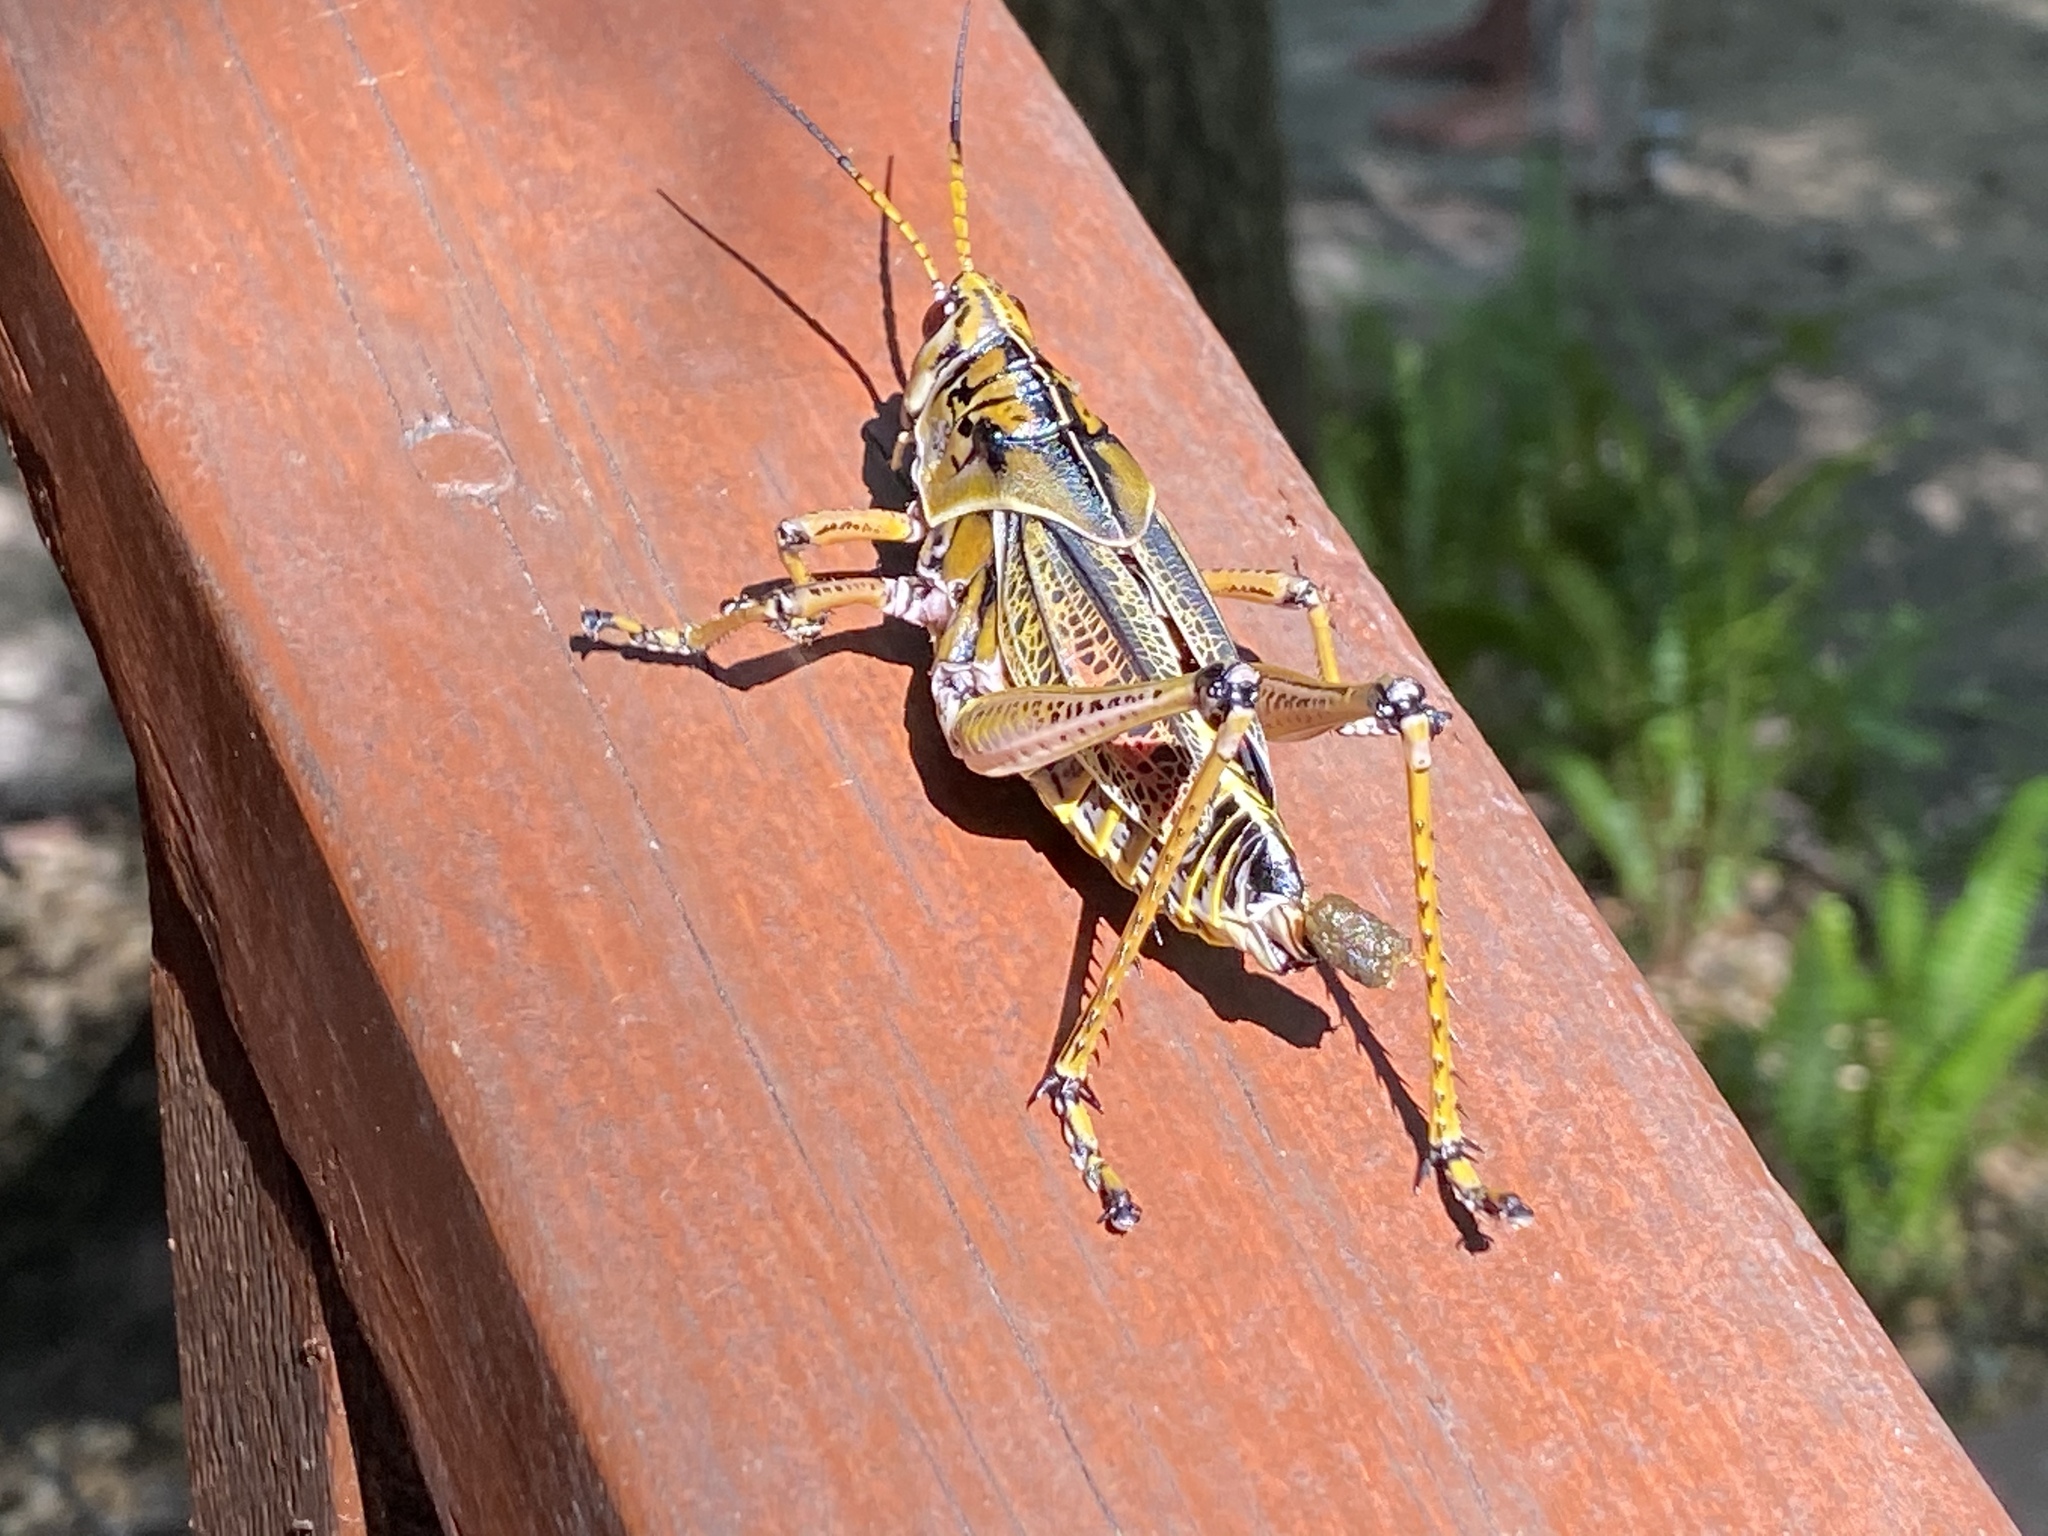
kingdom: Animalia
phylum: Arthropoda
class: Insecta
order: Orthoptera
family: Romaleidae
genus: Romalea
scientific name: Romalea microptera
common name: Eastern lubber grasshopper
